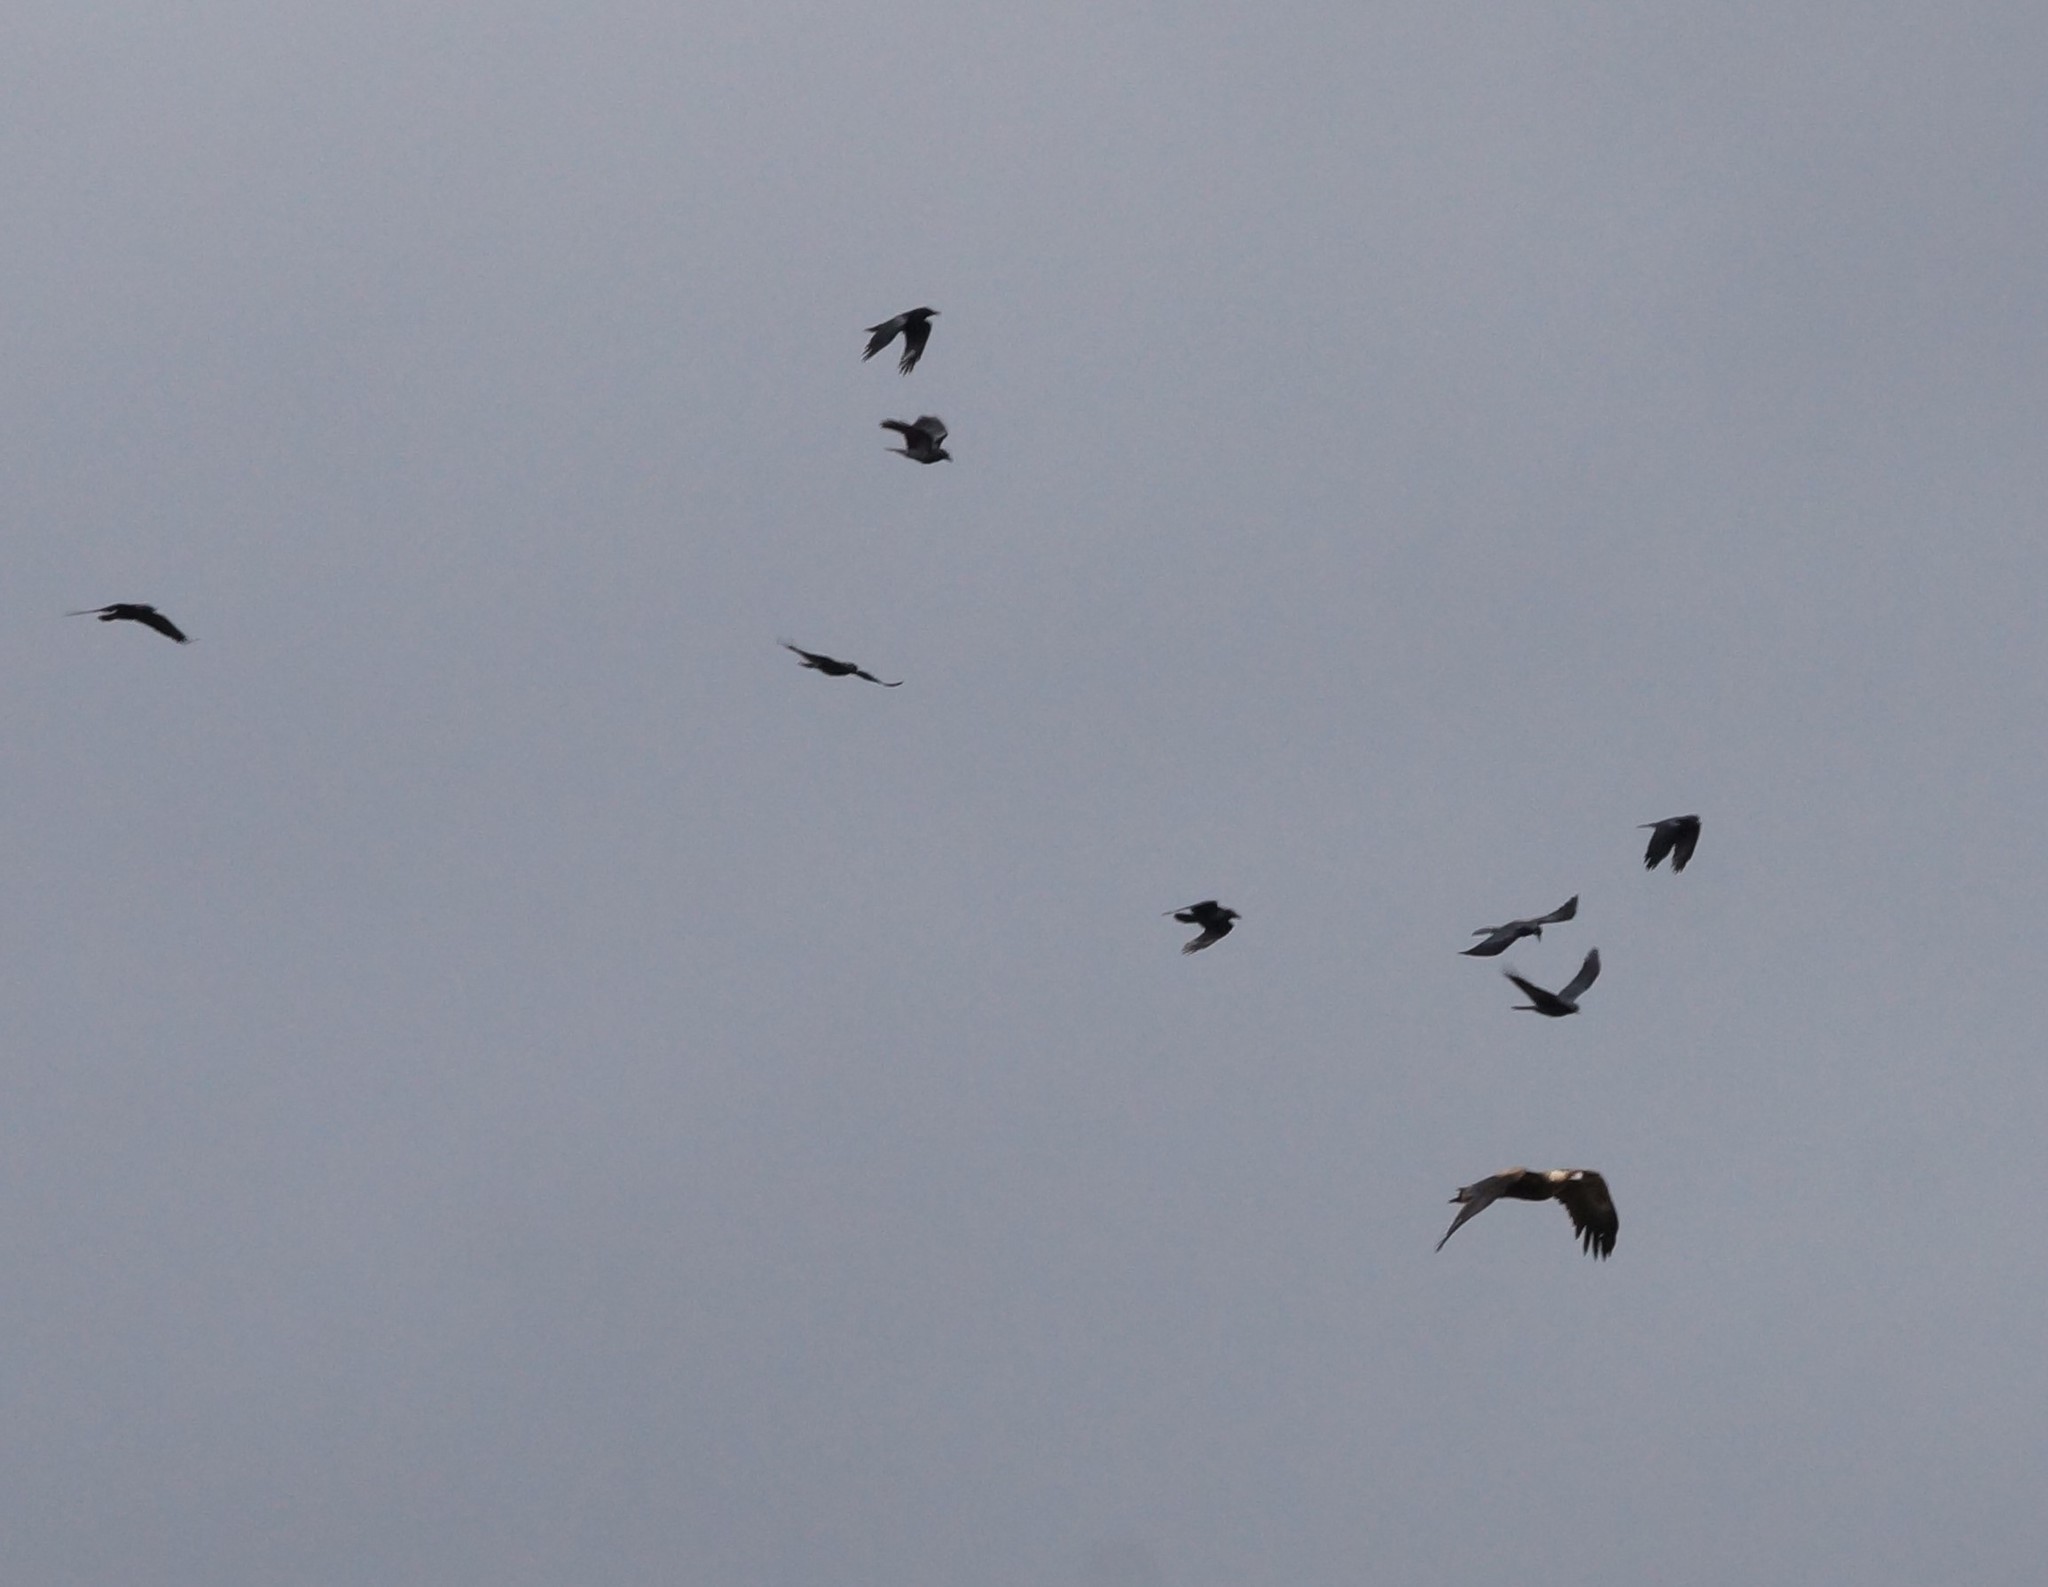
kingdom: Animalia
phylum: Chordata
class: Aves
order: Accipitriformes
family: Accipitridae
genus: Aquila
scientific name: Aquila audax
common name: Wedge-tailed eagle
